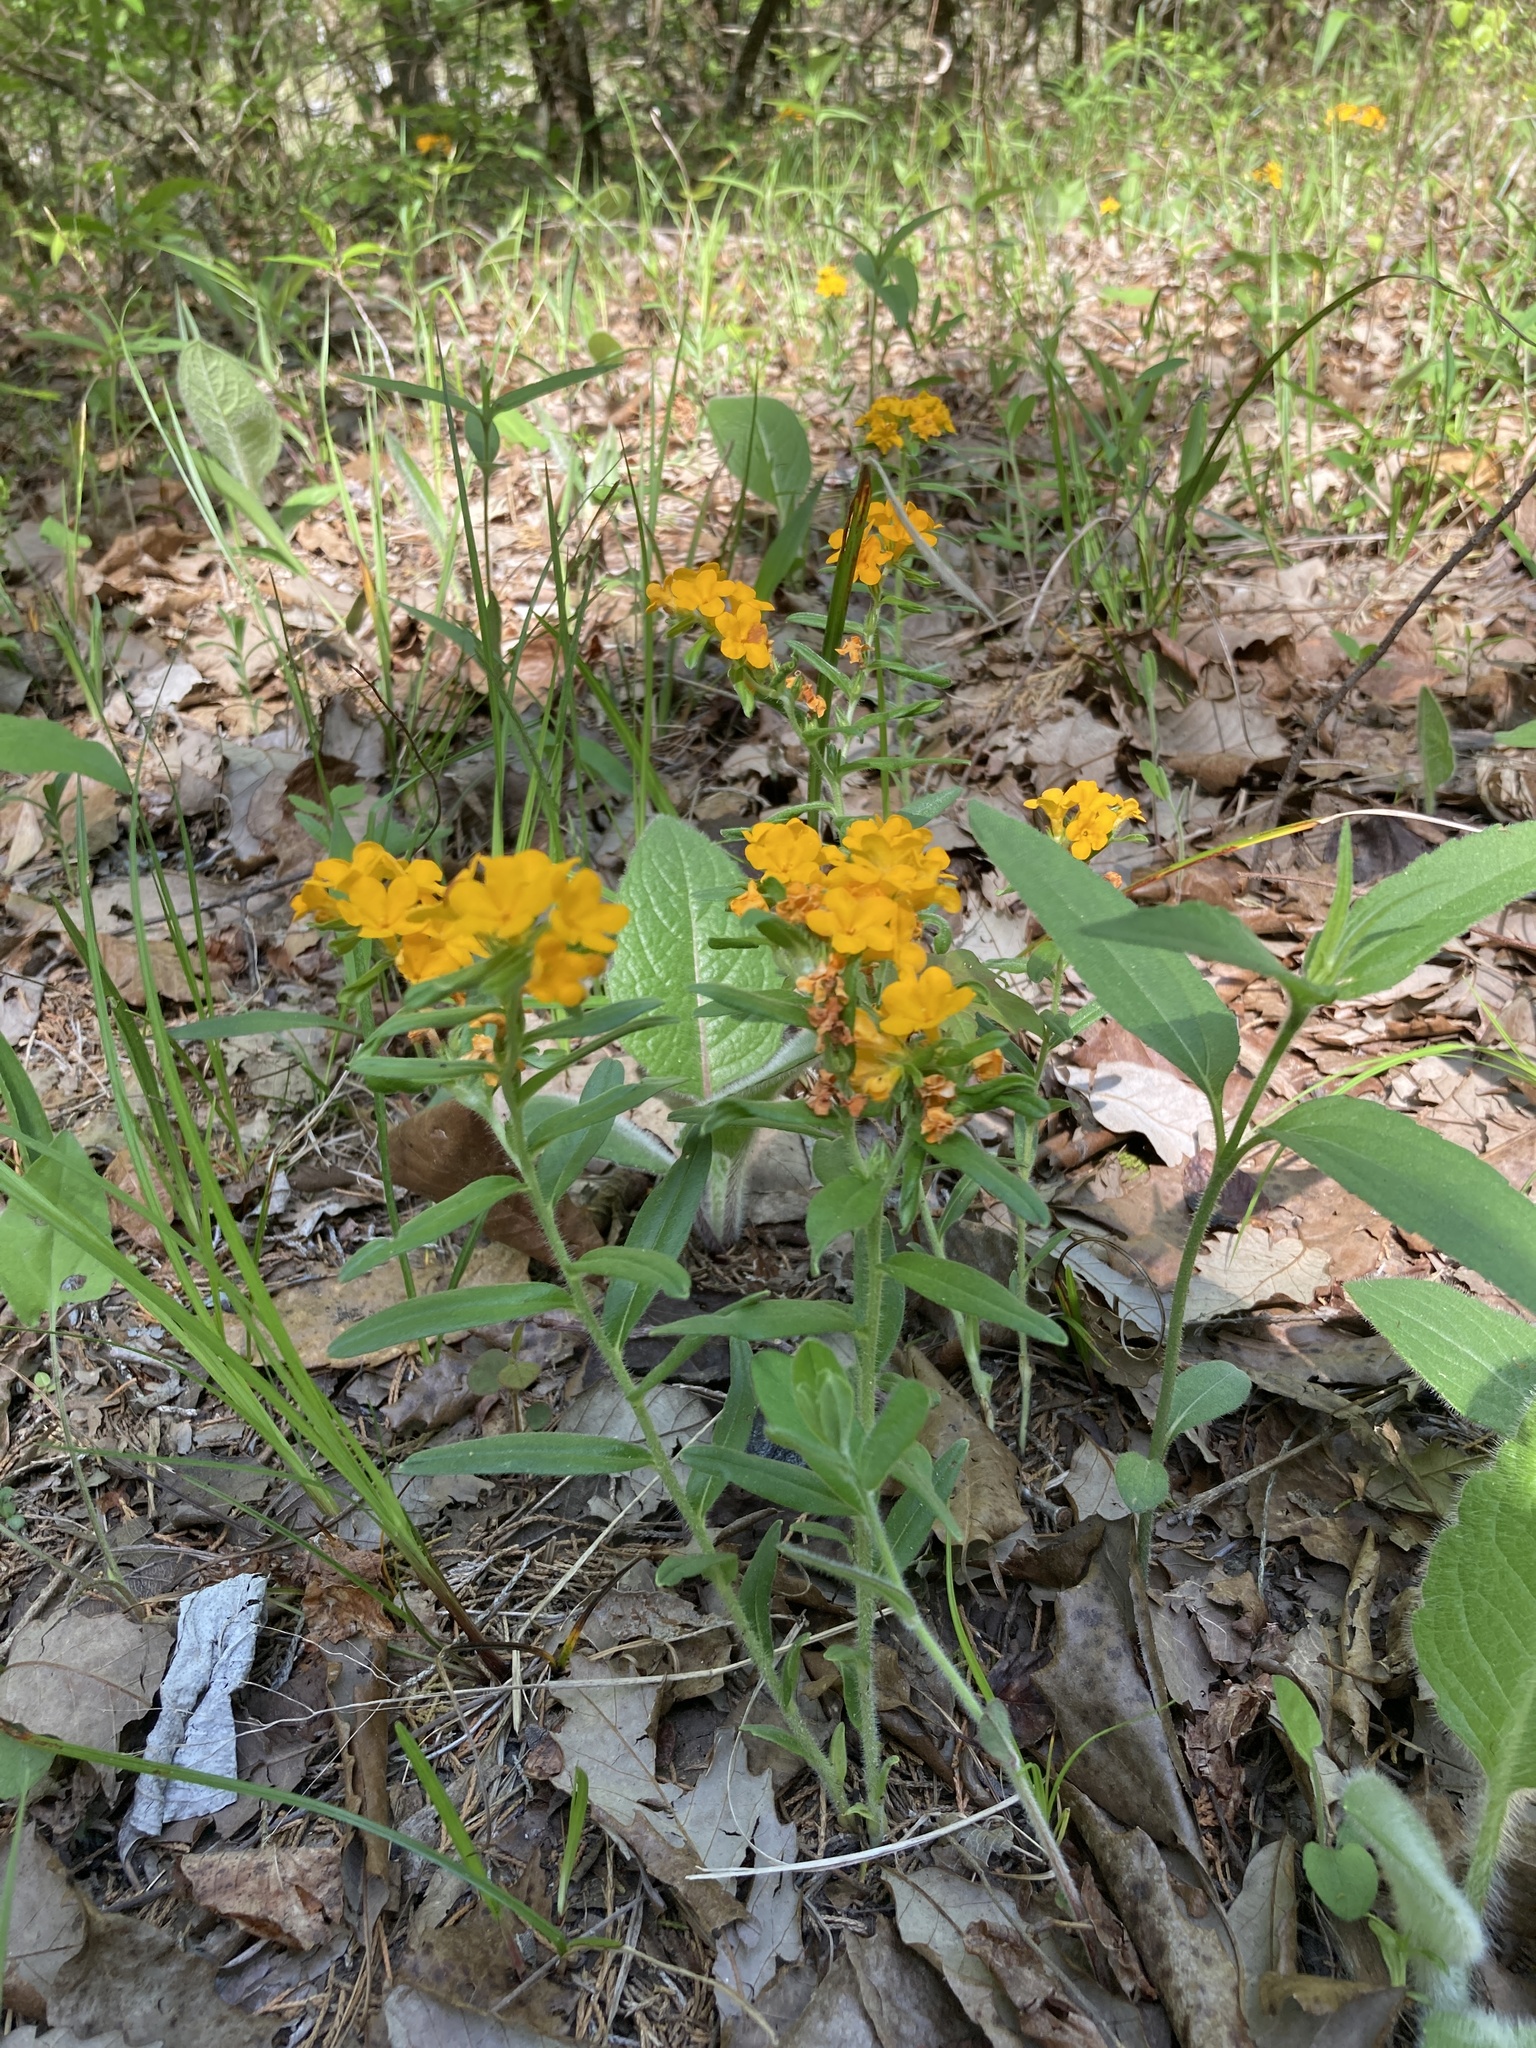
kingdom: Plantae
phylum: Tracheophyta
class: Magnoliopsida
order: Boraginales
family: Boraginaceae
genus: Lithospermum
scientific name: Lithospermum canescens
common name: Hoary puccoon
